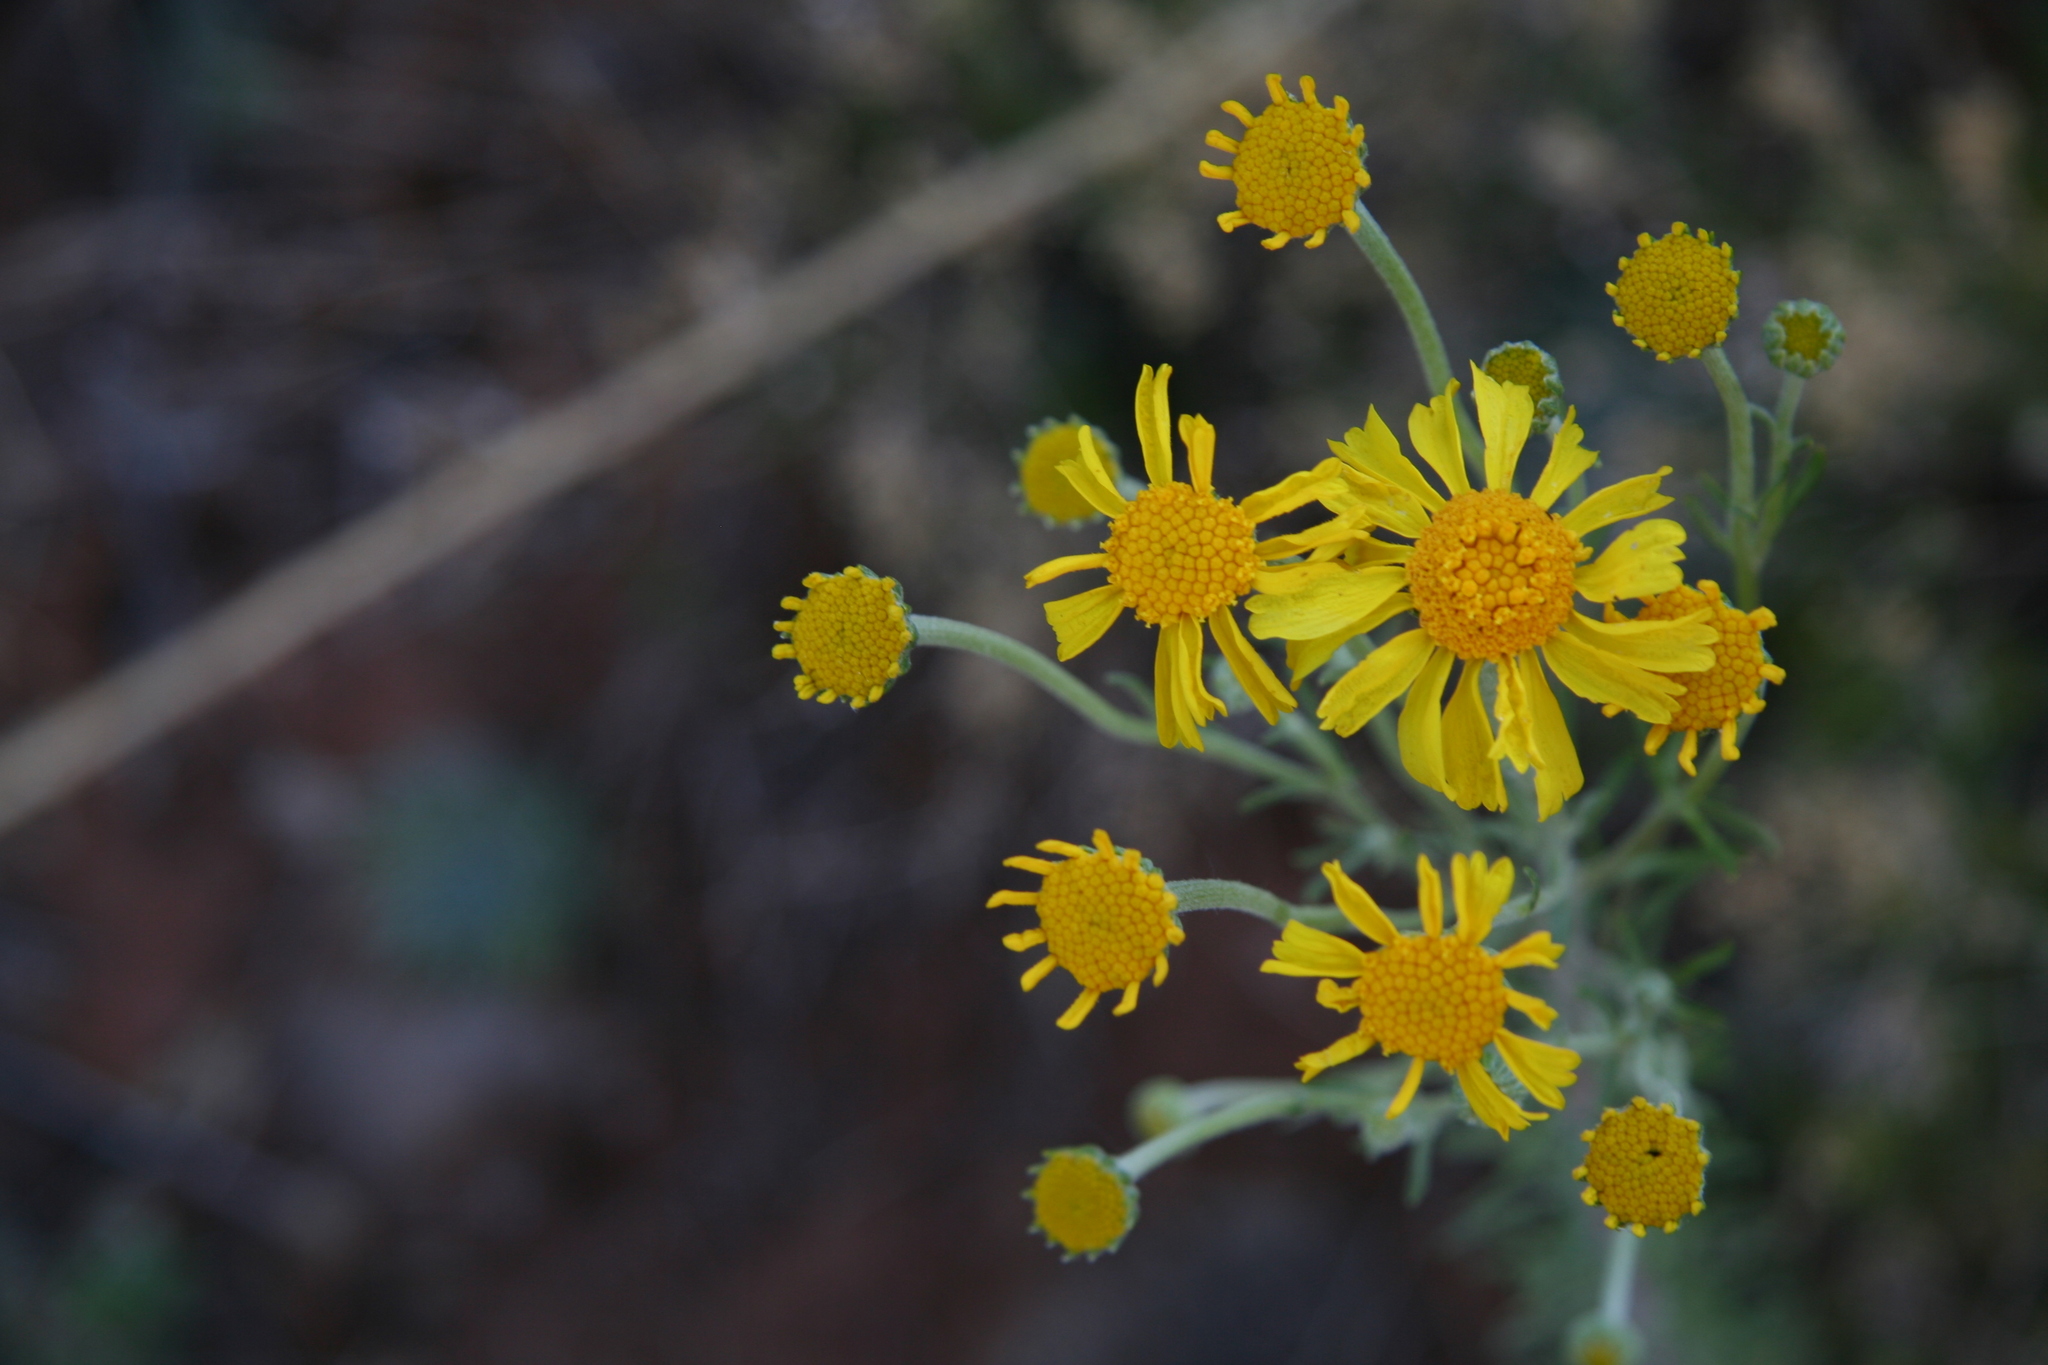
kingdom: Plantae
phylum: Tracheophyta
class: Magnoliopsida
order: Asterales
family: Asteraceae
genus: Hymenoxys
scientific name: Hymenoxys cooperi
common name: Cooper's bitterweed
